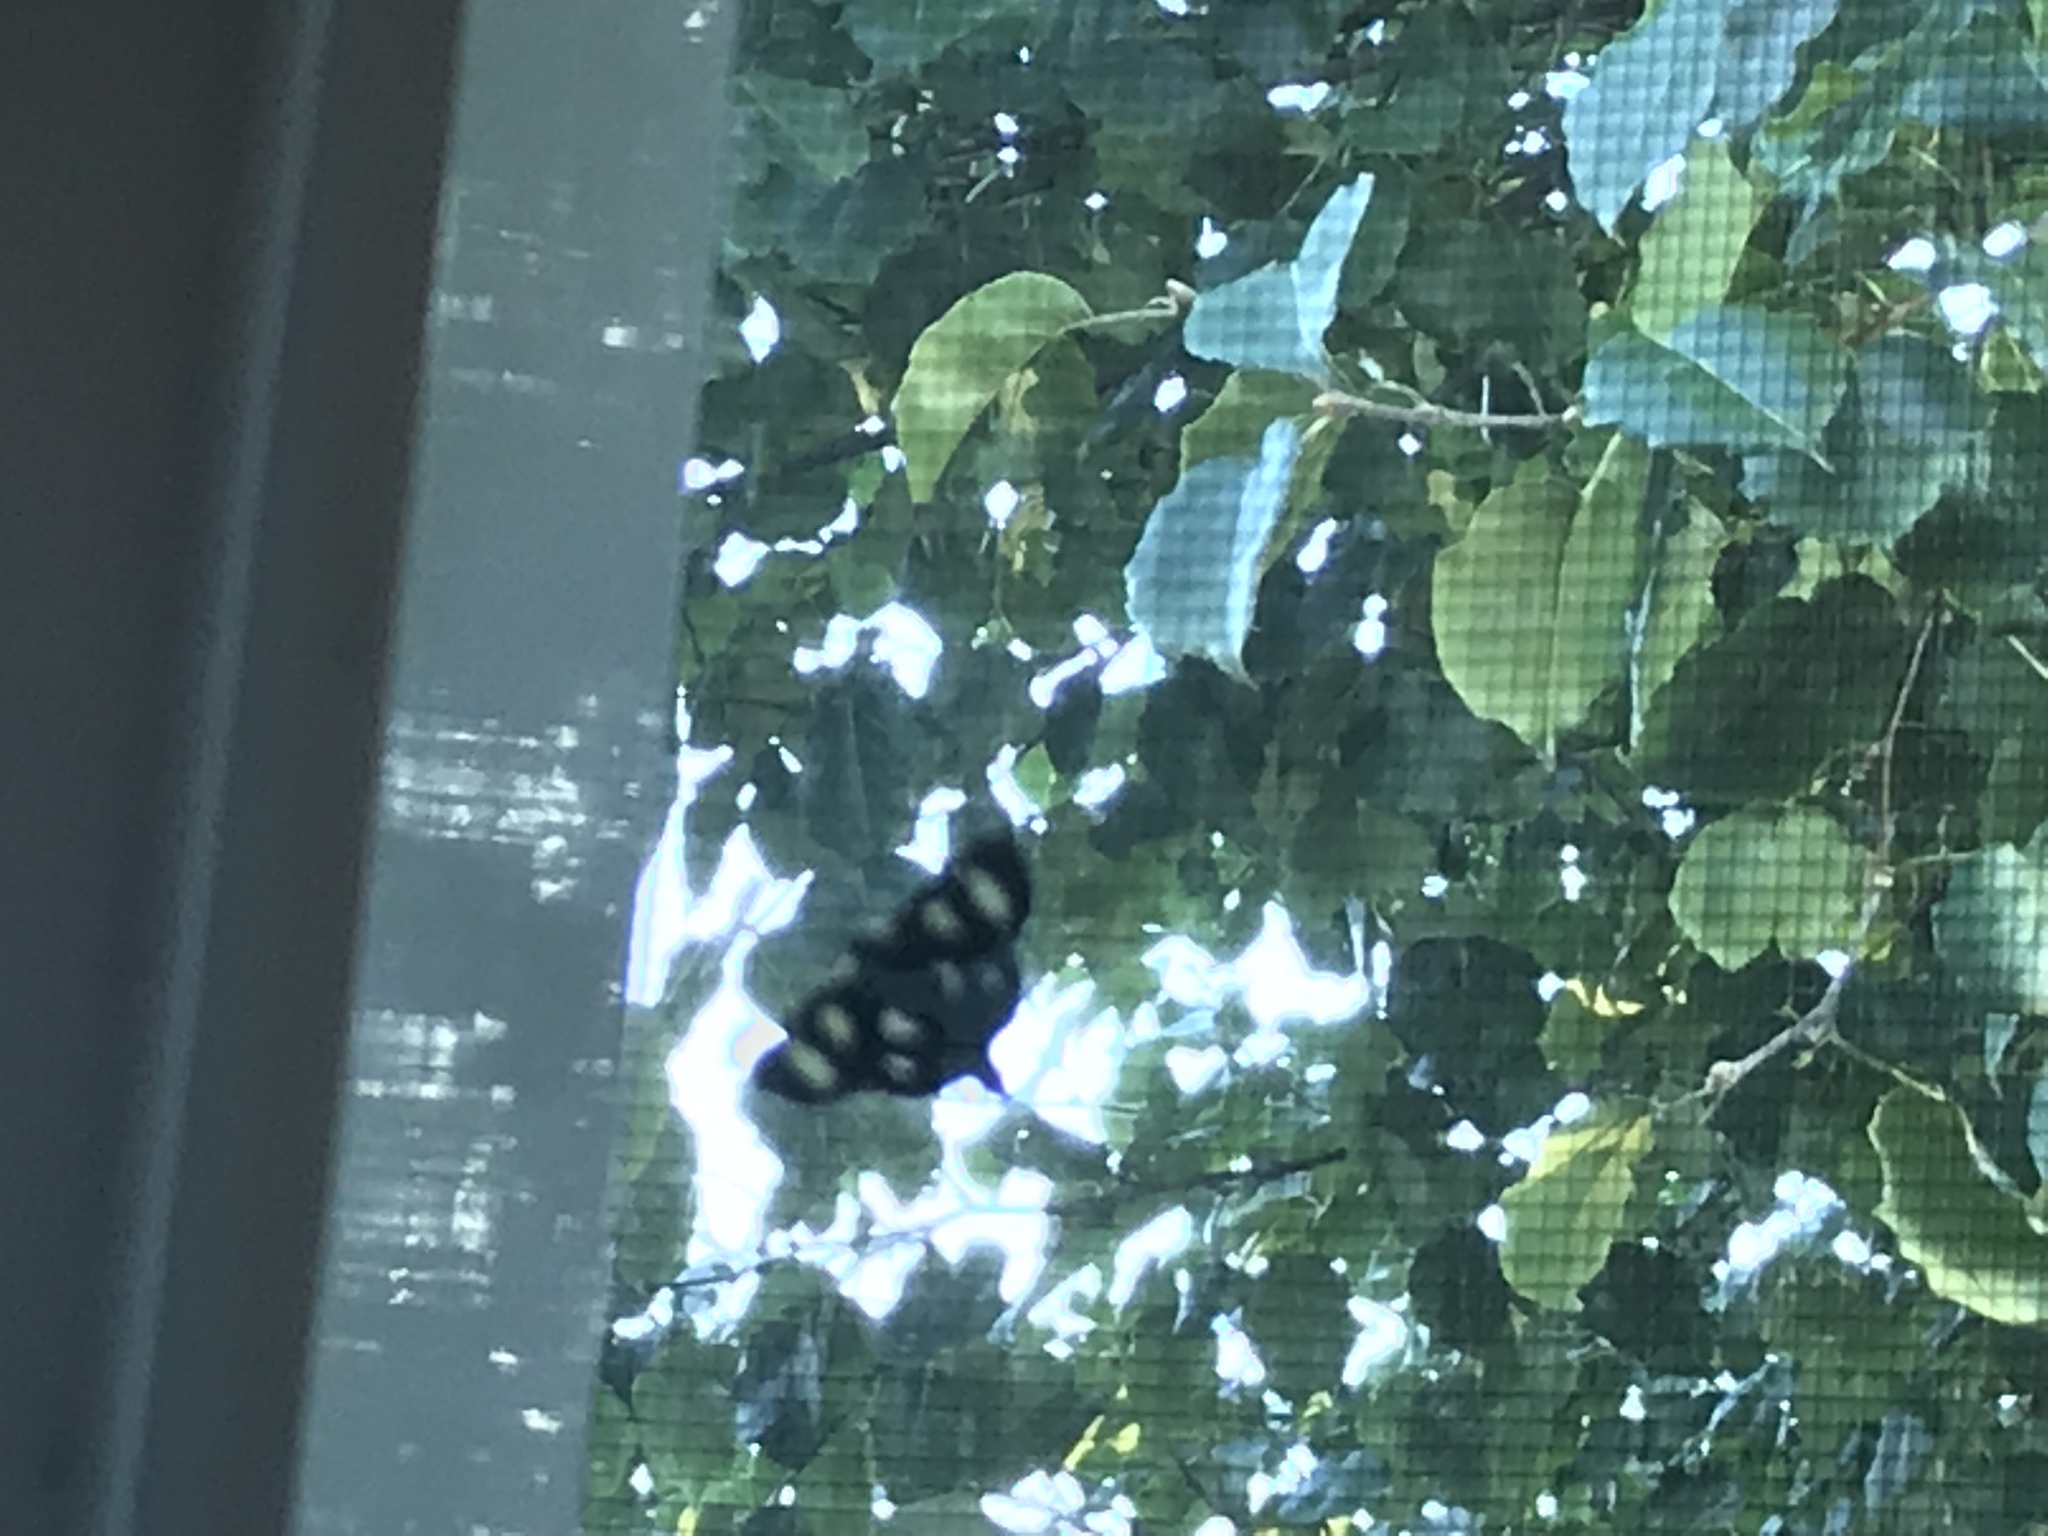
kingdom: Animalia
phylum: Arthropoda
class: Insecta
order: Lepidoptera
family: Noctuidae
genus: Alypia
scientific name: Alypia octomaculata
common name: Eight-spotted forester
